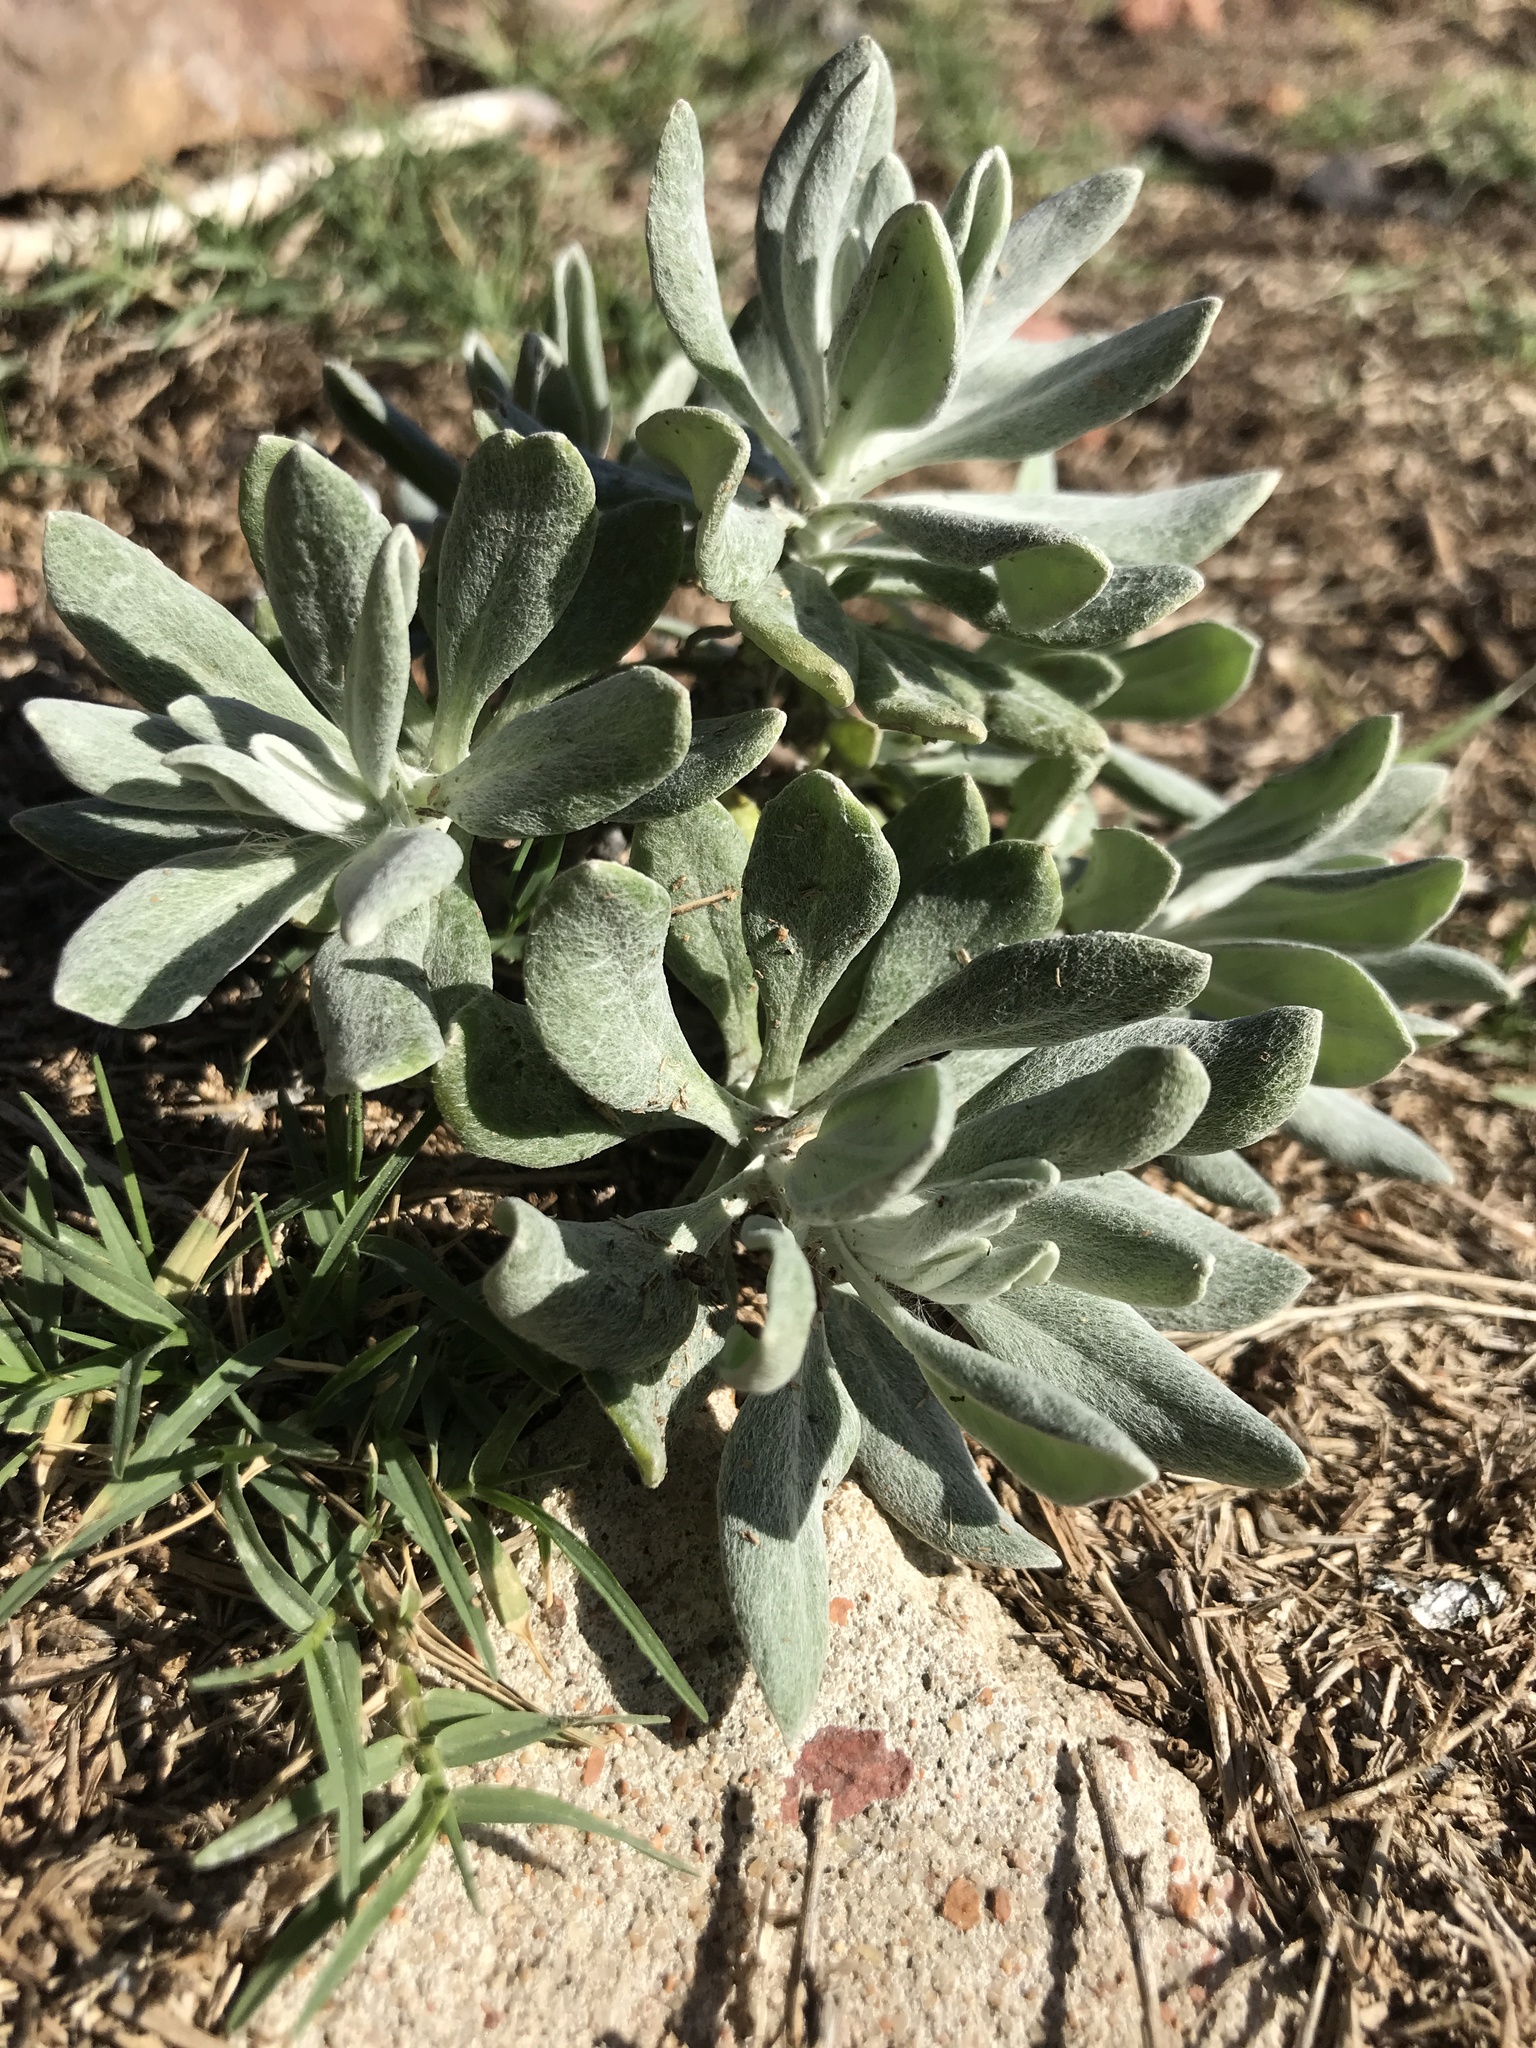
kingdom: Plantae
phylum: Tracheophyta
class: Magnoliopsida
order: Asterales
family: Asteraceae
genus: Senecio
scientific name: Senecio crassiflorus
